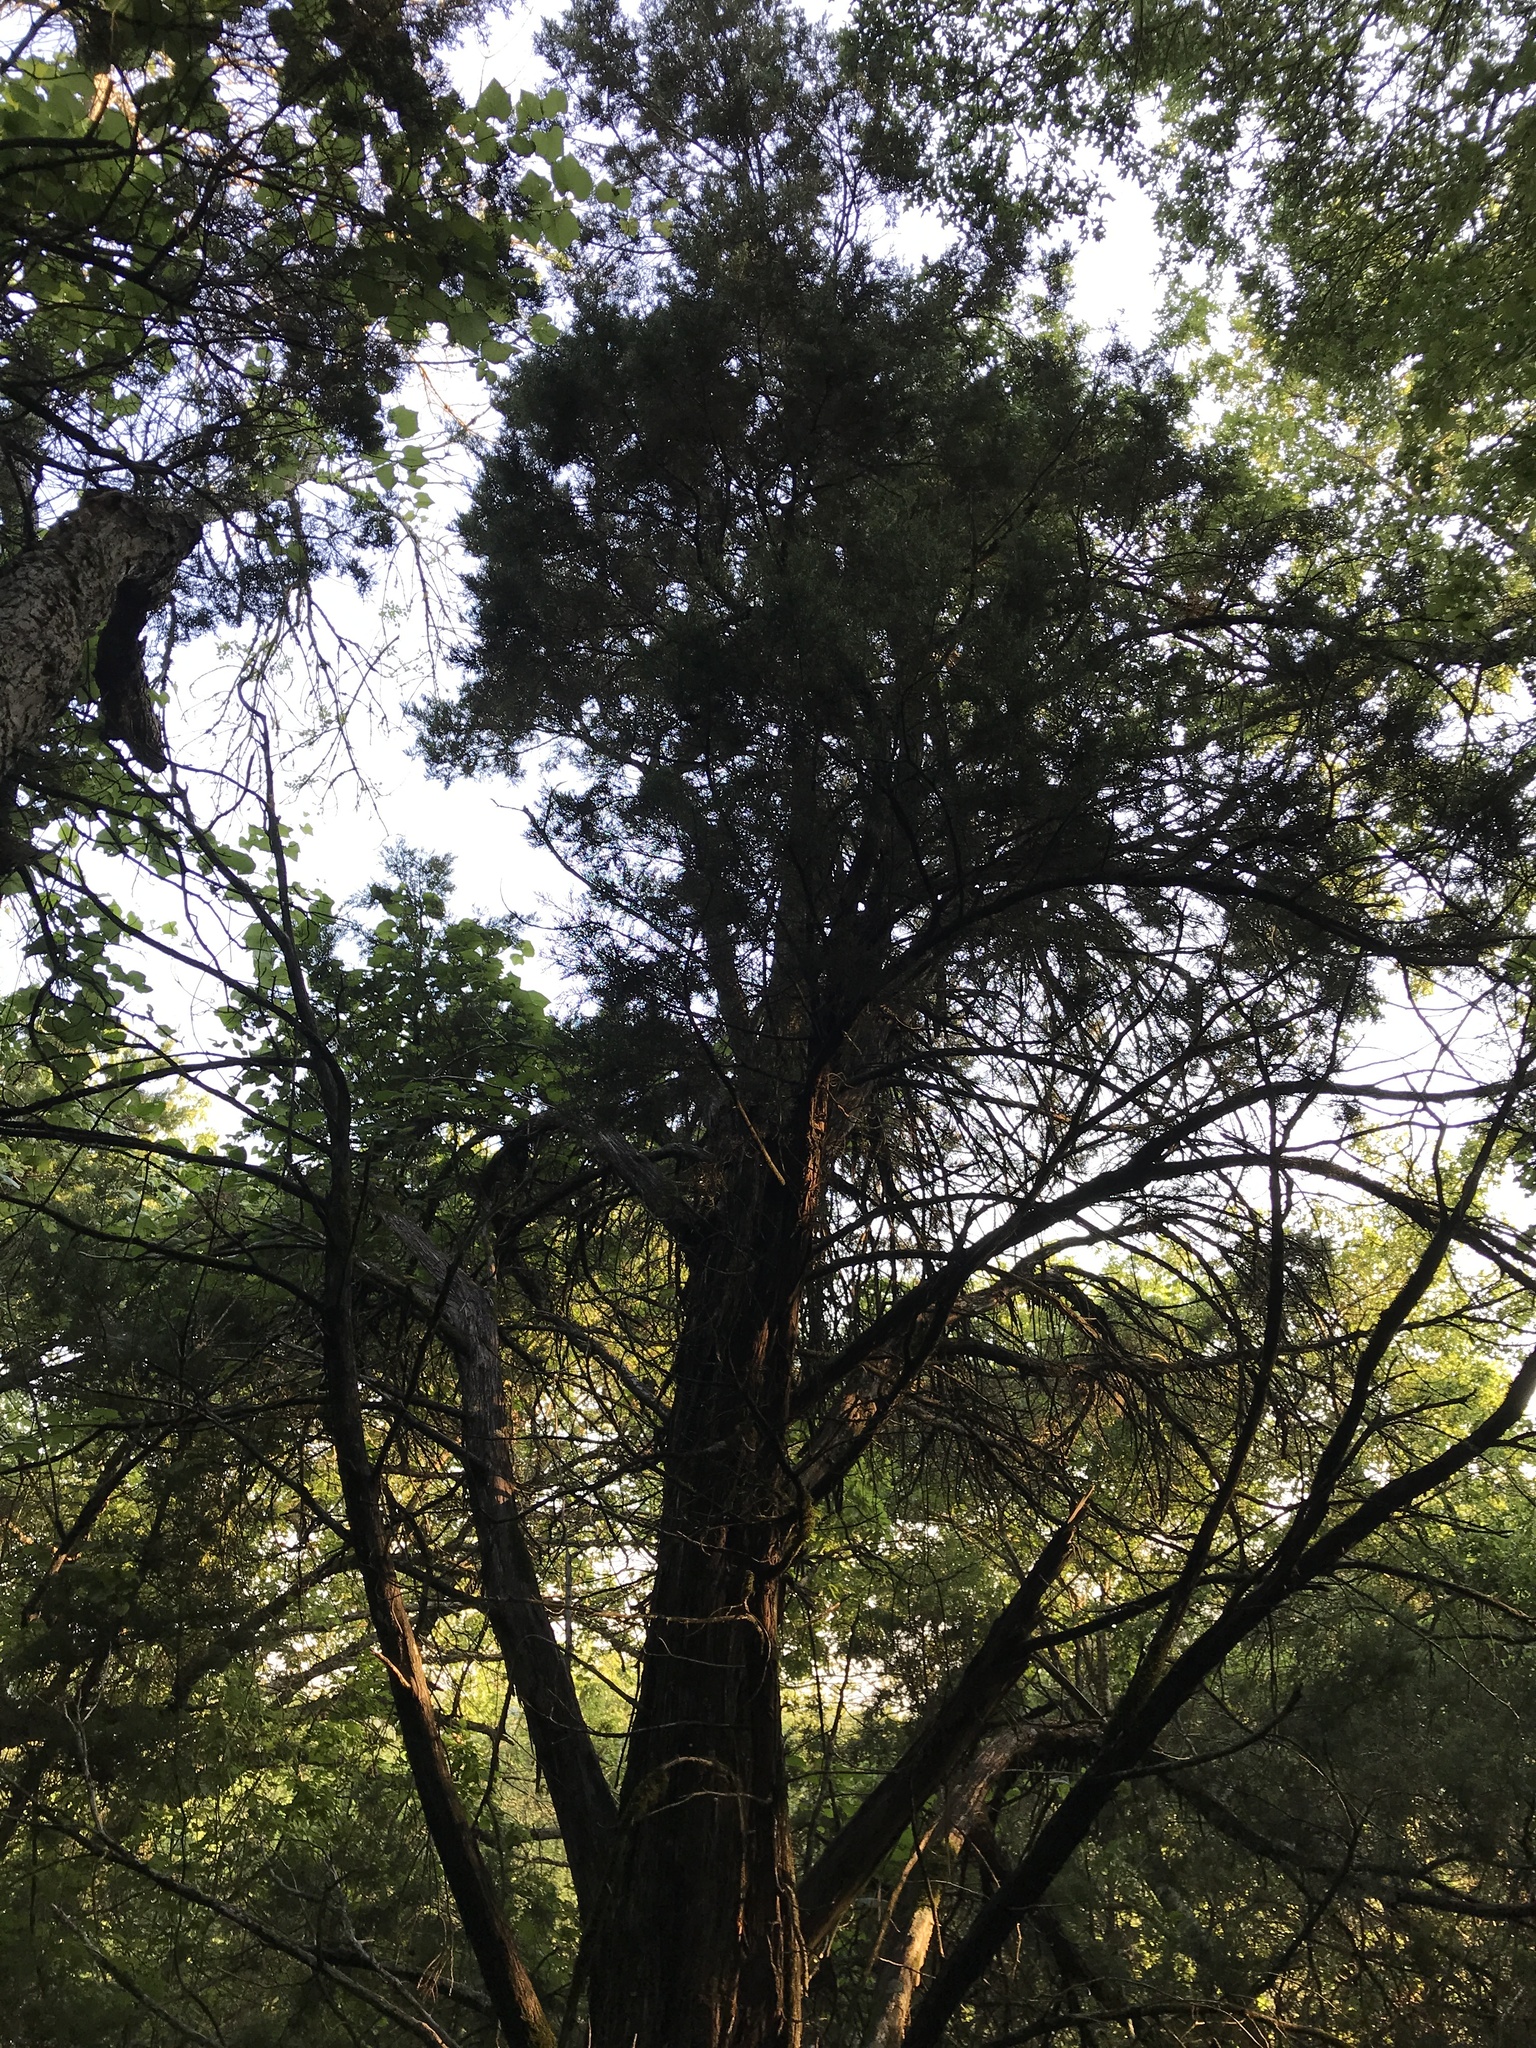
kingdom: Plantae
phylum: Tracheophyta
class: Pinopsida
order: Pinales
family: Cupressaceae
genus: Juniperus
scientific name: Juniperus ashei
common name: Mexican juniper
